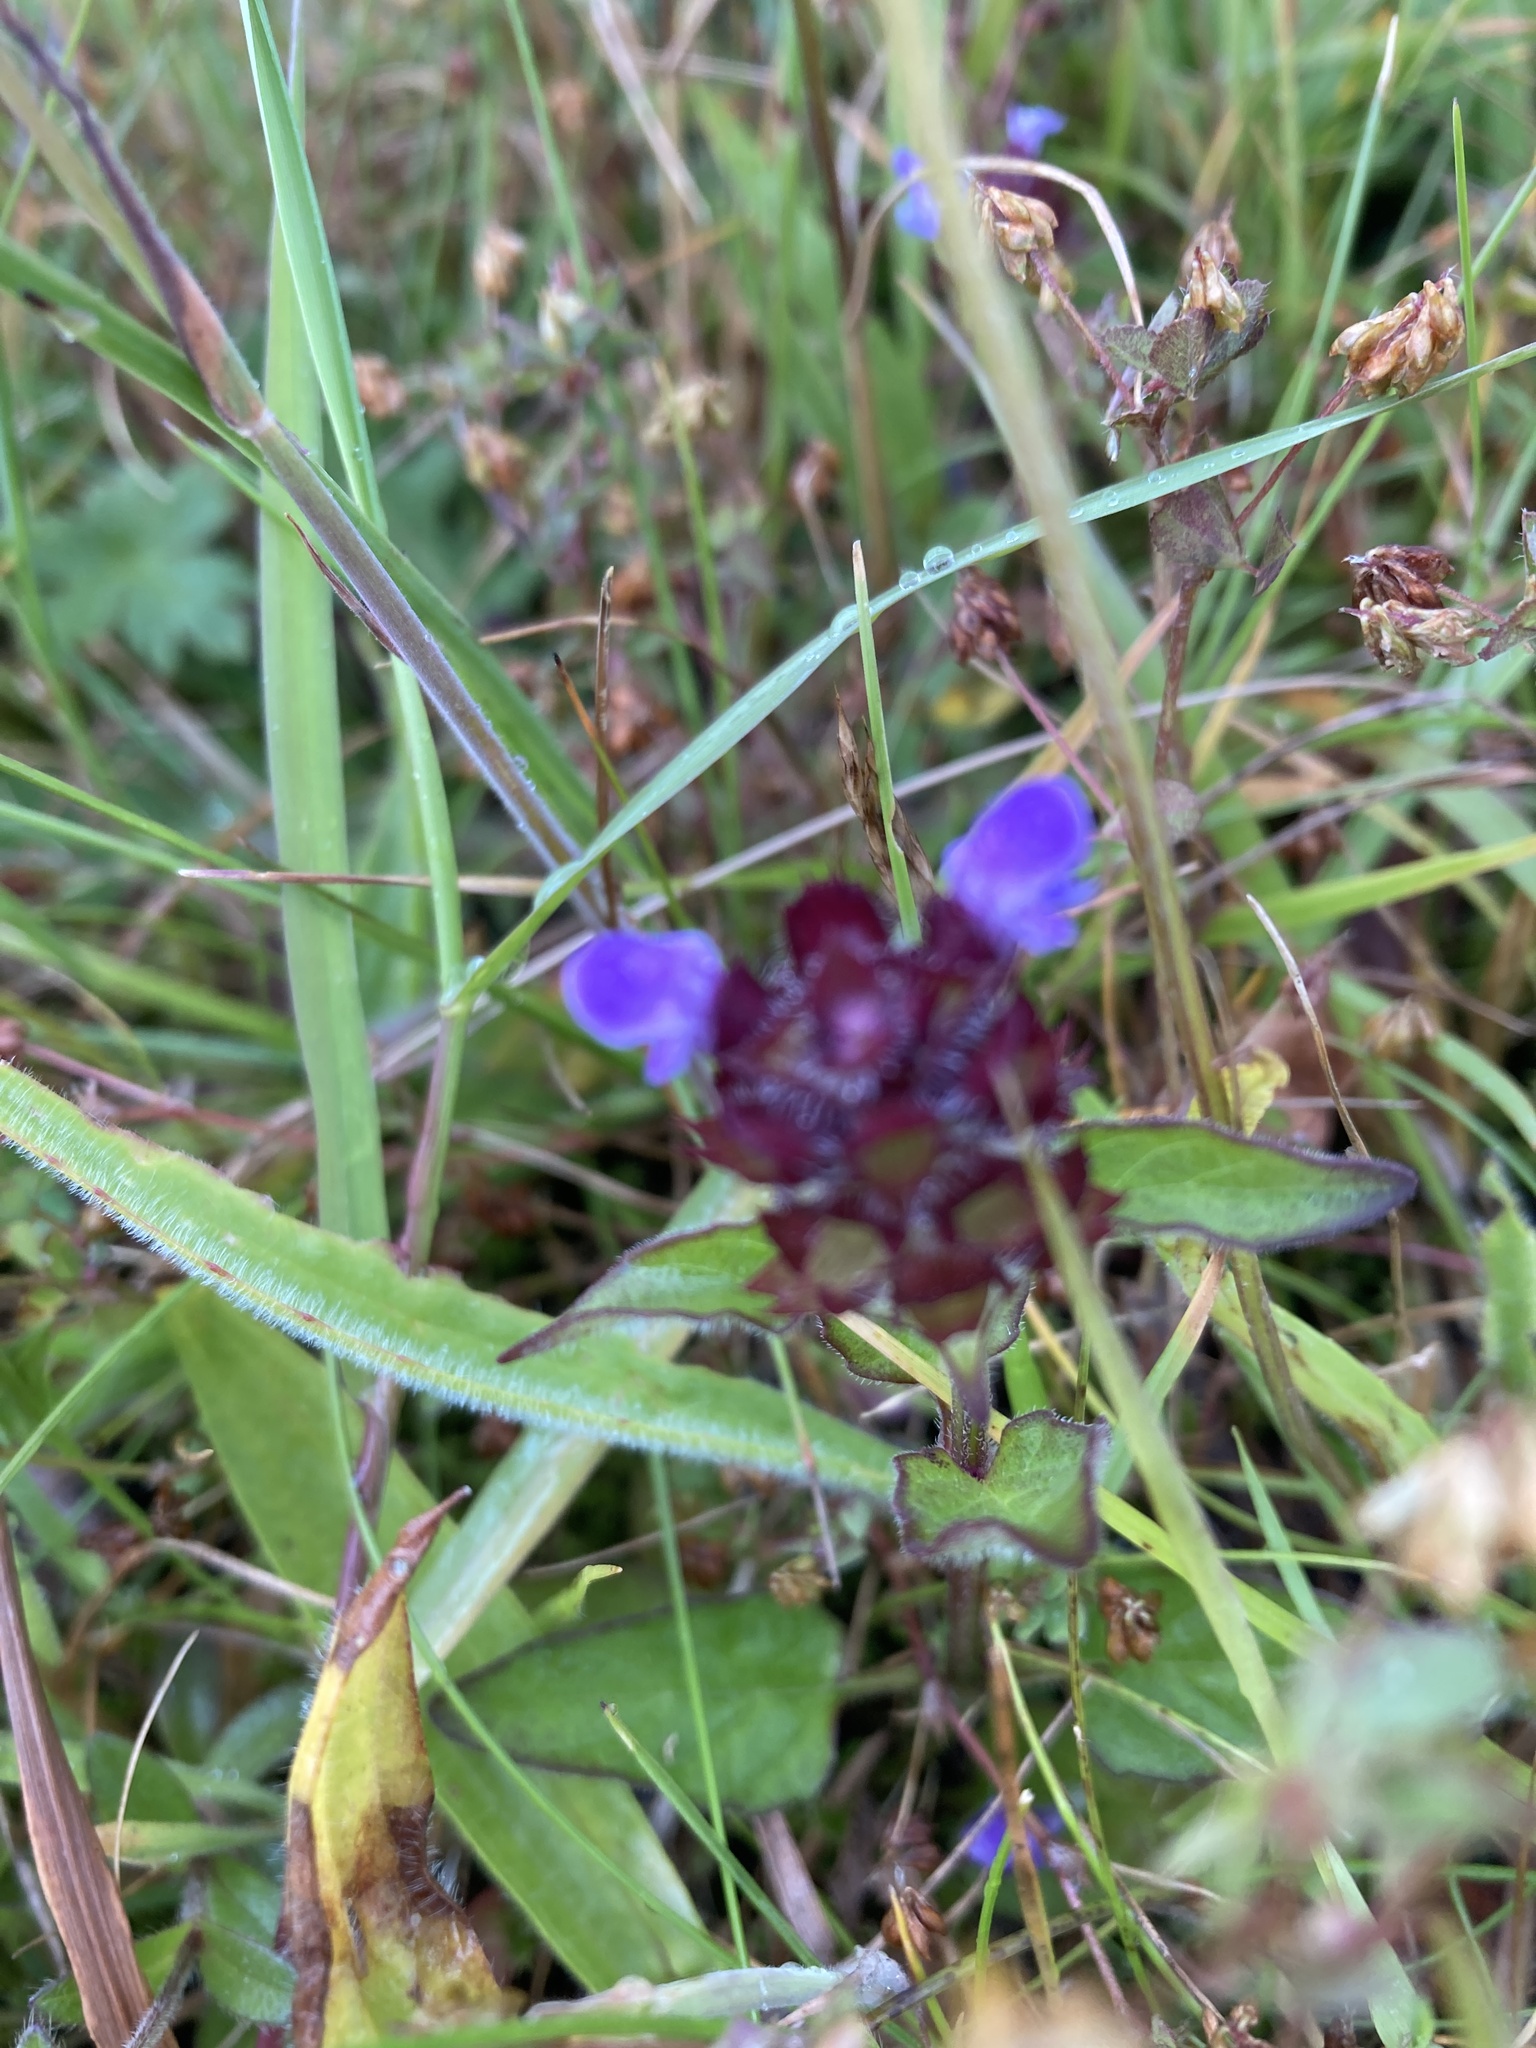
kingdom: Plantae
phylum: Tracheophyta
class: Magnoliopsida
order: Lamiales
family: Lamiaceae
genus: Prunella
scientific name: Prunella vulgaris
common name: Heal-all
